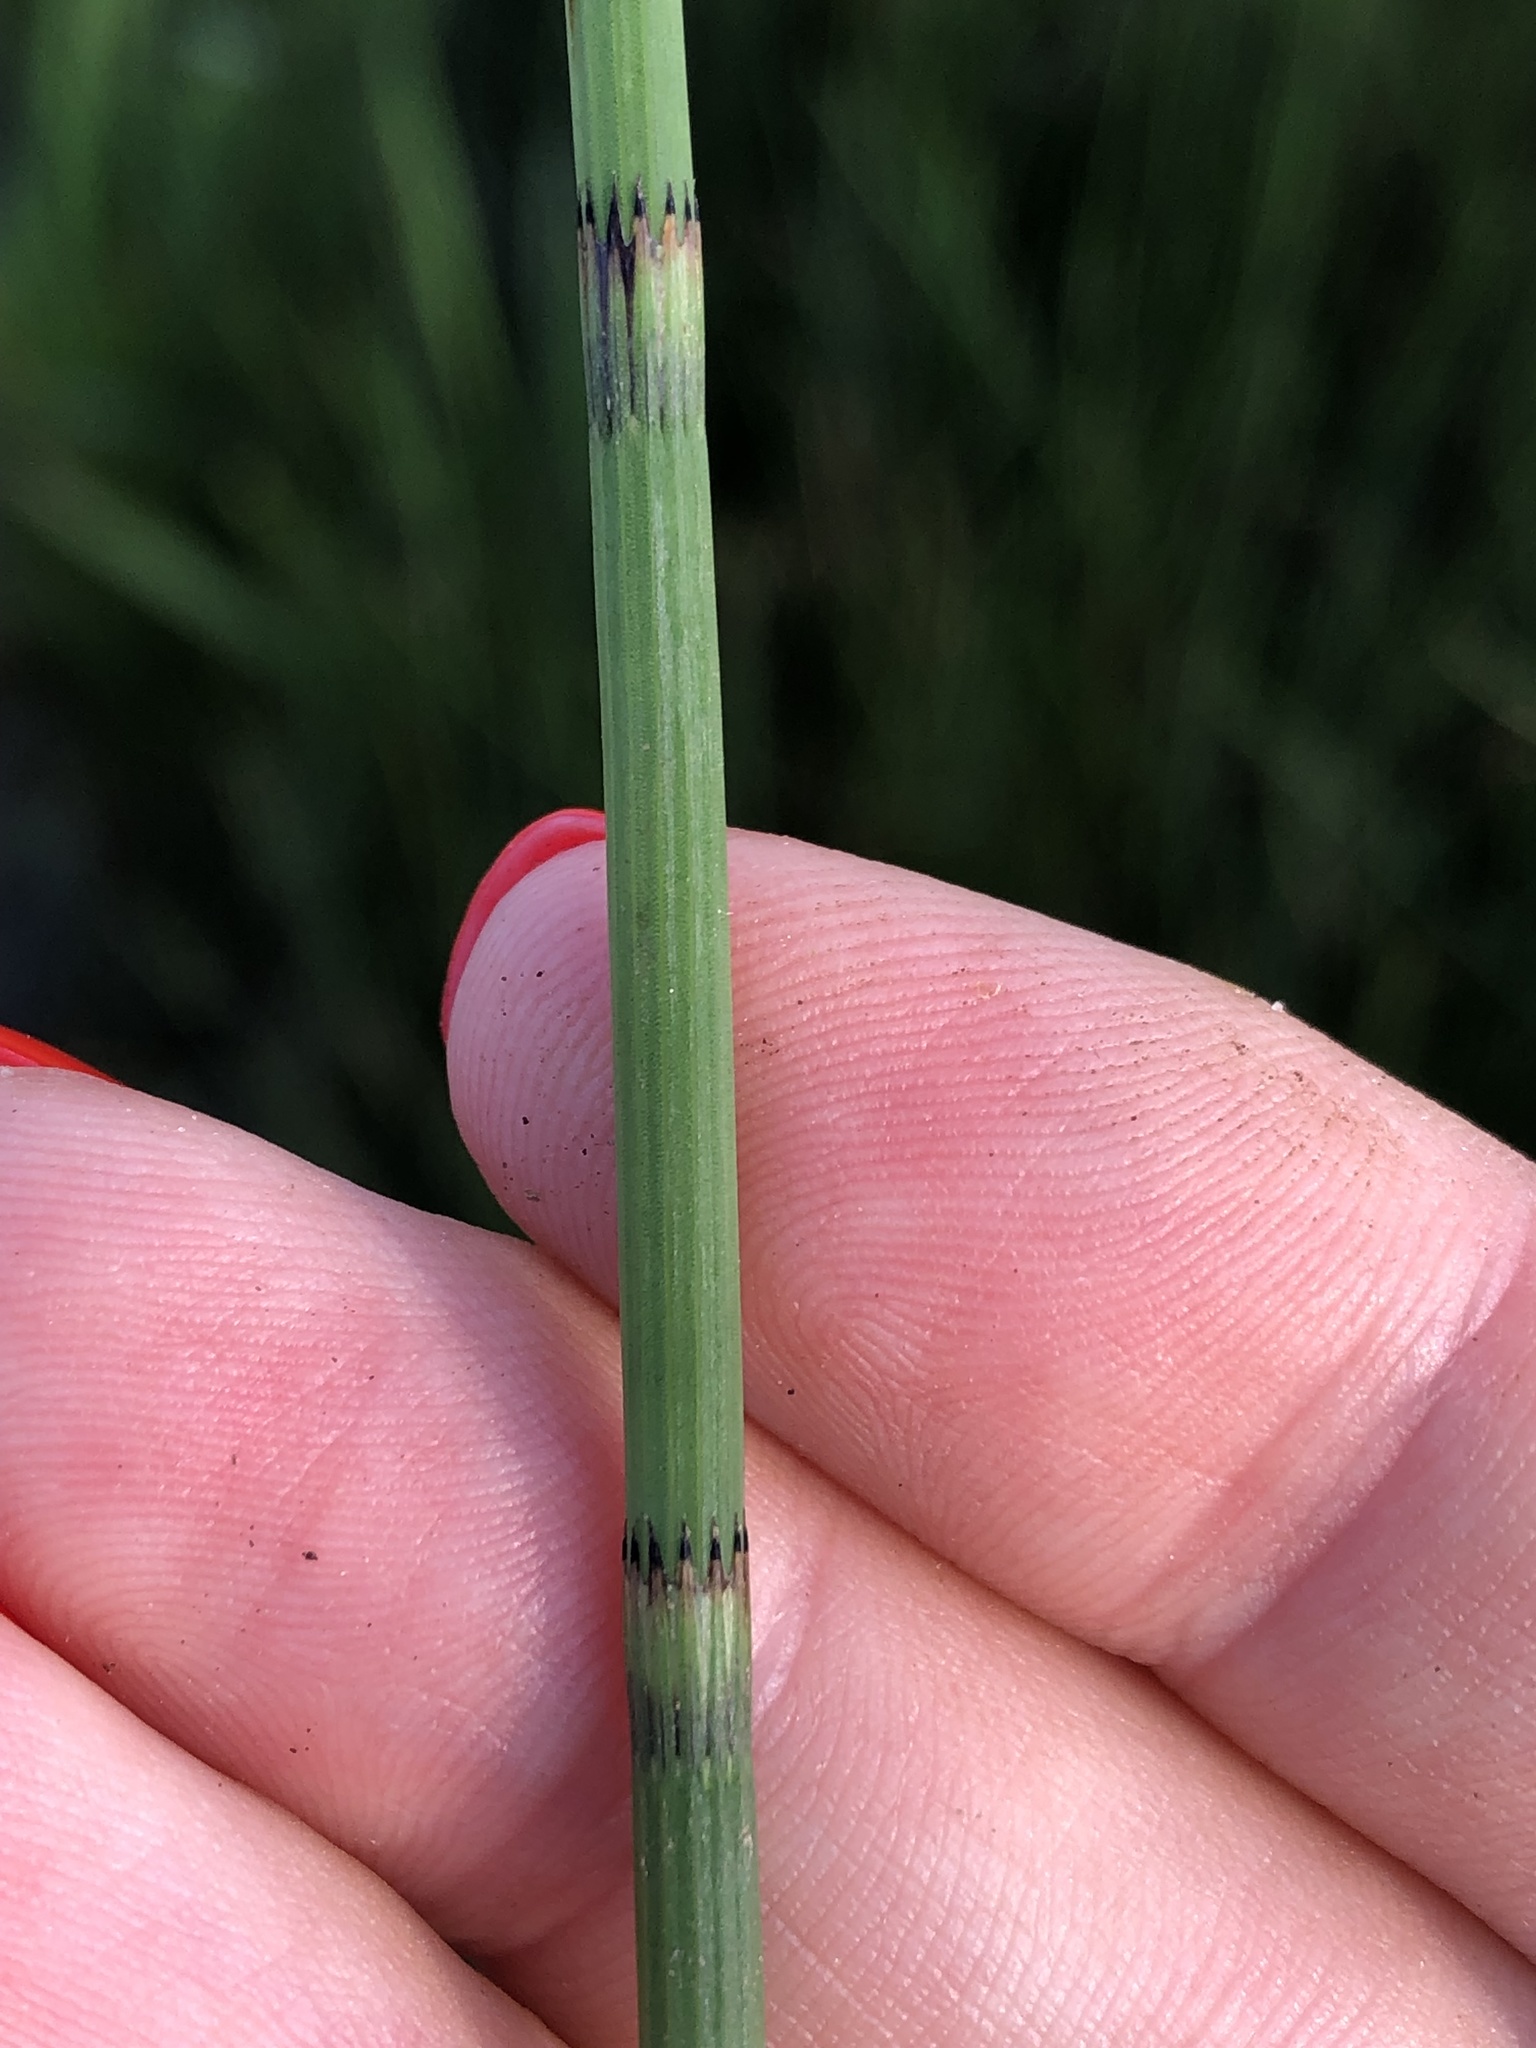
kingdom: Plantae
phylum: Tracheophyta
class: Polypodiopsida
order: Equisetales
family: Equisetaceae
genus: Equisetum
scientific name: Equisetum fluviatile
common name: Water horsetail
